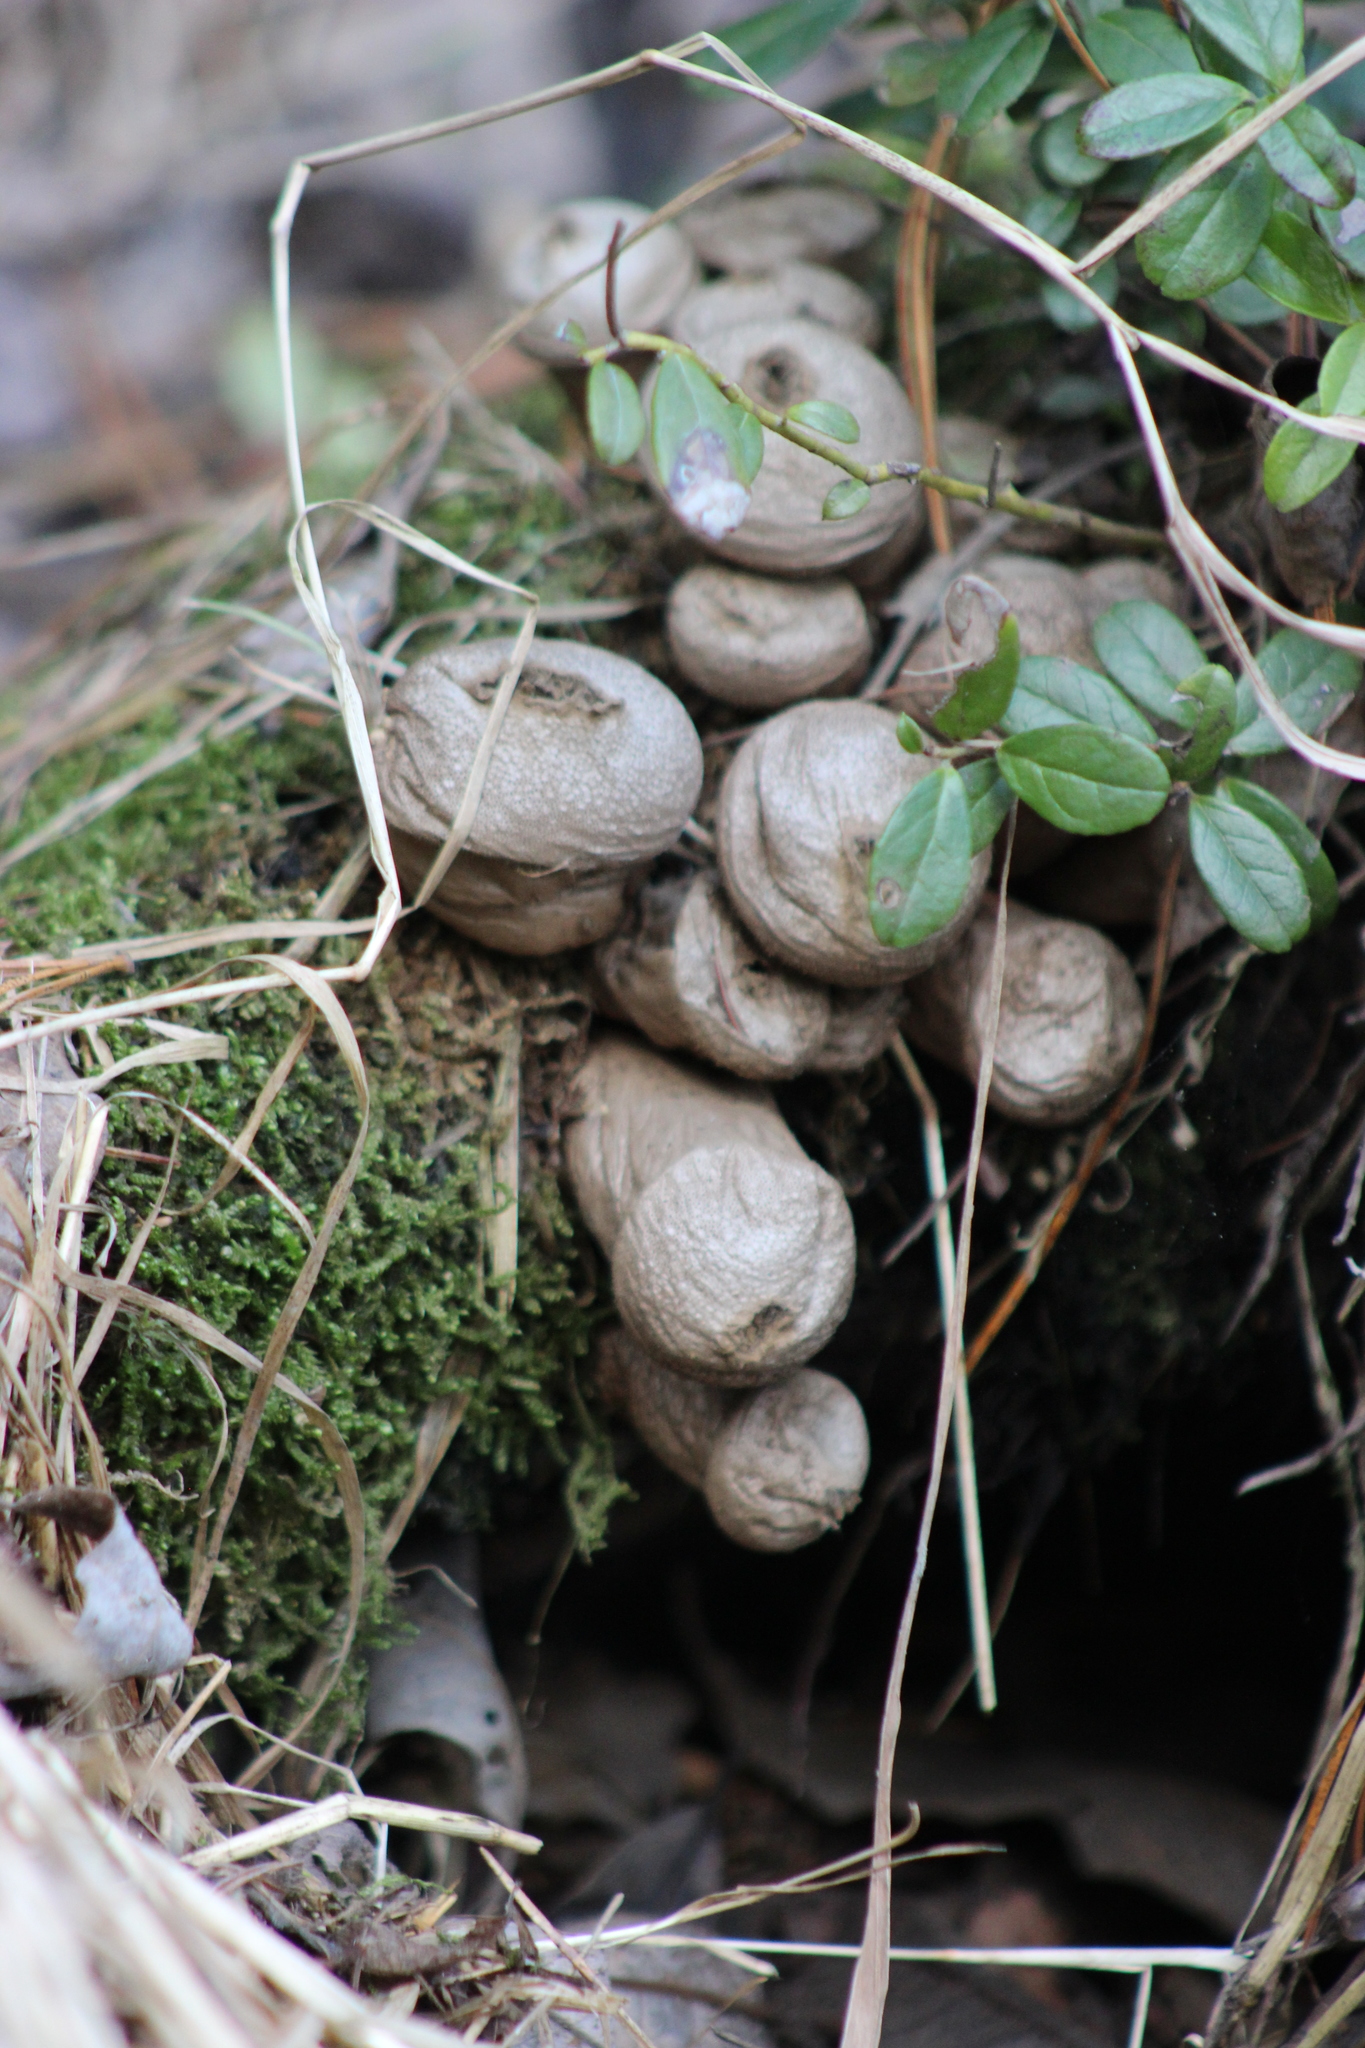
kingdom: Fungi
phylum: Basidiomycota
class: Agaricomycetes
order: Agaricales
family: Lycoperdaceae
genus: Lycoperdon
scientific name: Lycoperdon perlatum
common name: Common puffball
